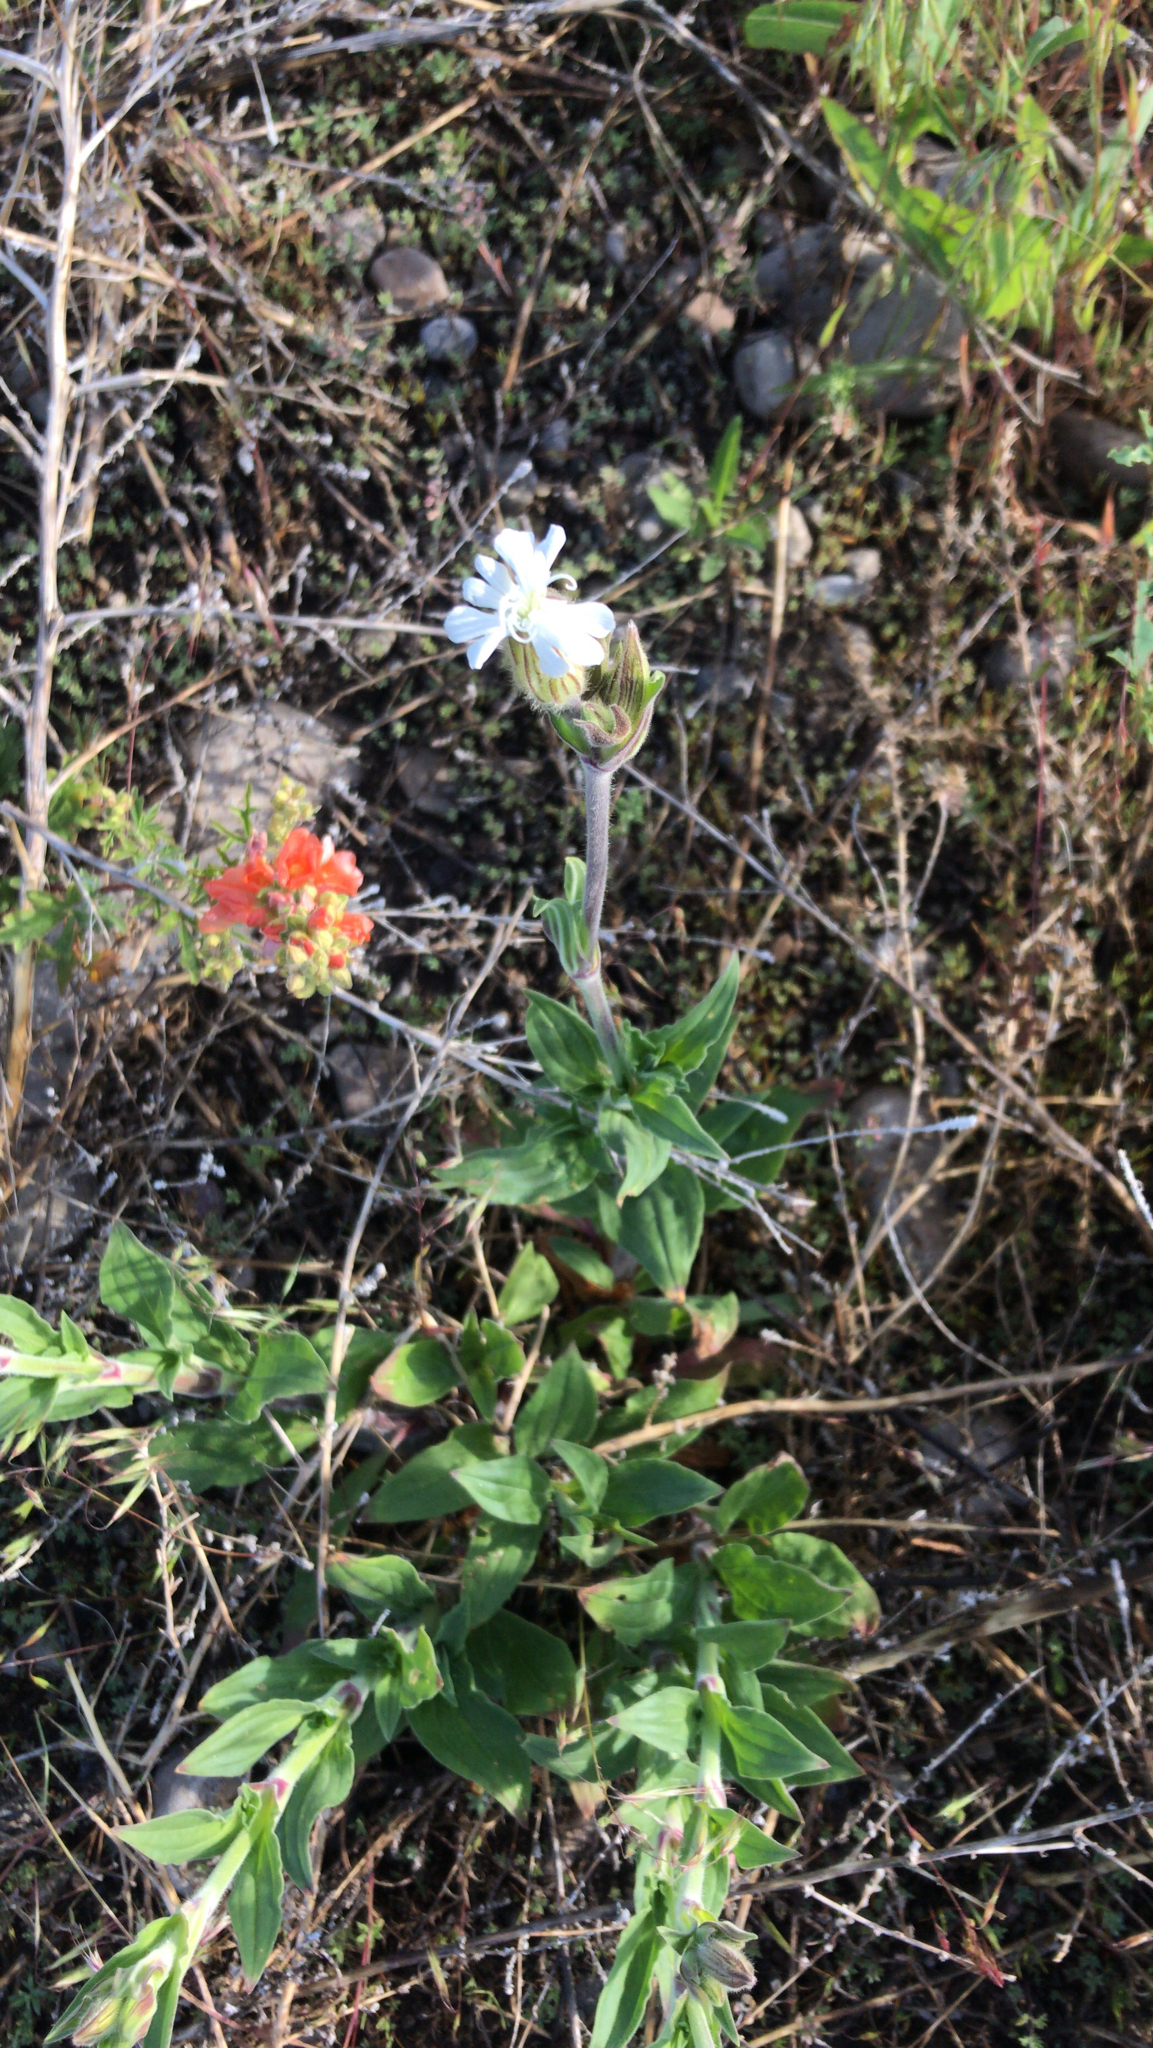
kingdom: Plantae
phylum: Tracheophyta
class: Magnoliopsida
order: Caryophyllales
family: Caryophyllaceae
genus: Silene
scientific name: Silene latifolia
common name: White campion
